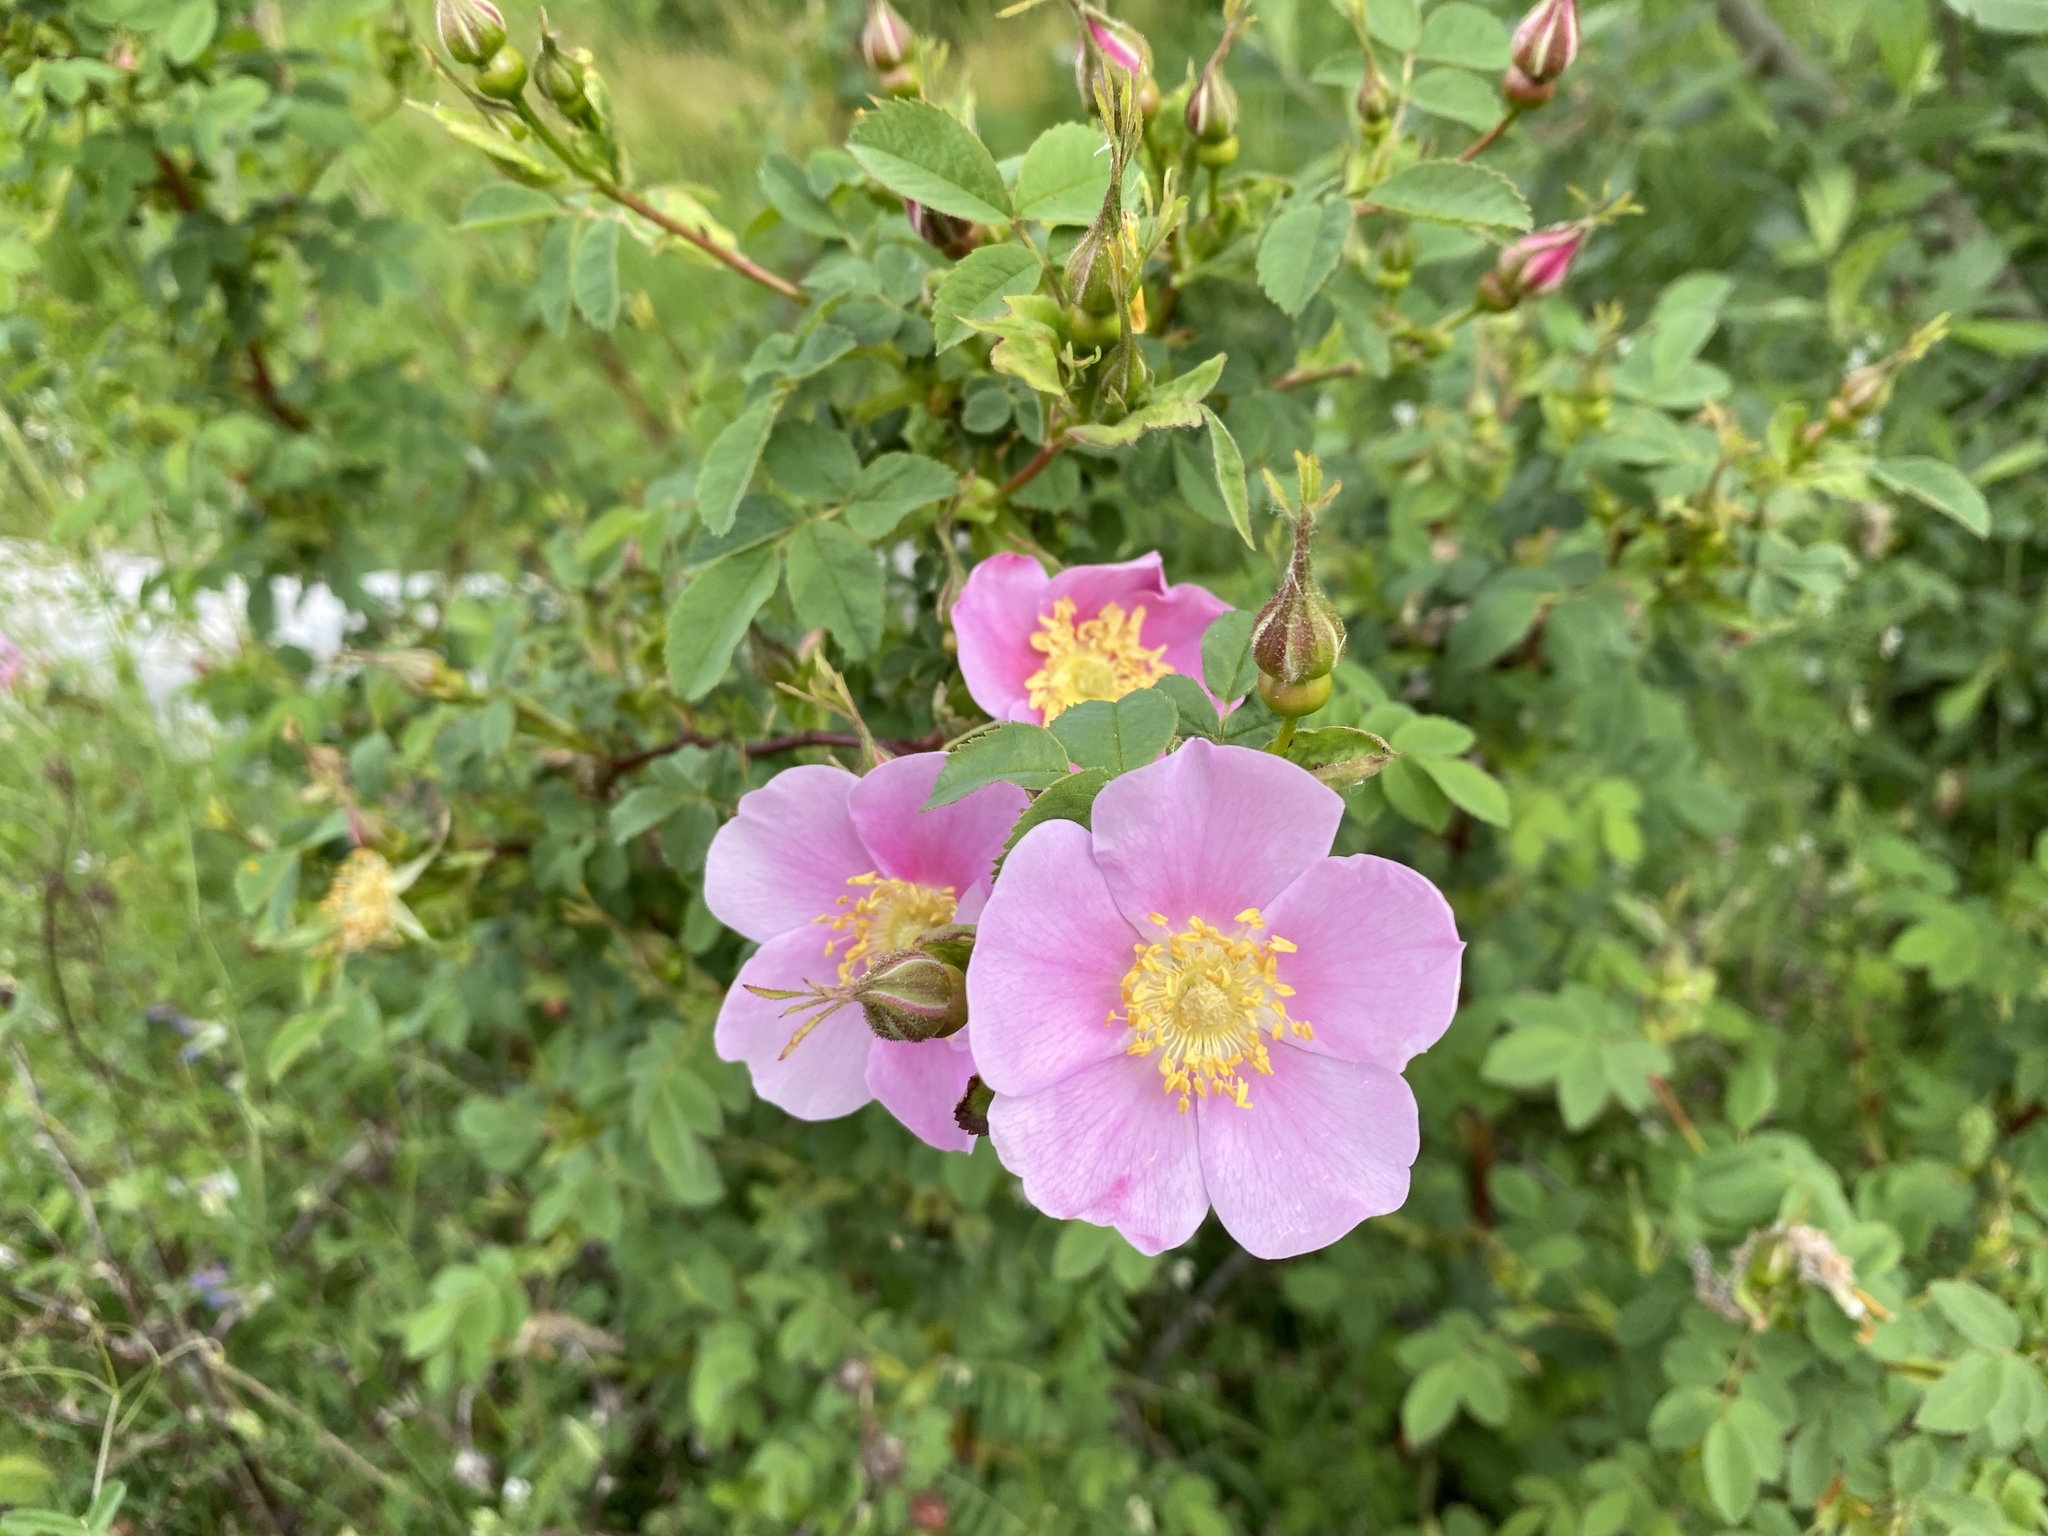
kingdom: Plantae
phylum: Tracheophyta
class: Magnoliopsida
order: Rosales
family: Rosaceae
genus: Rosa
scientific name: Rosa nutkana
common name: Nootka rose
